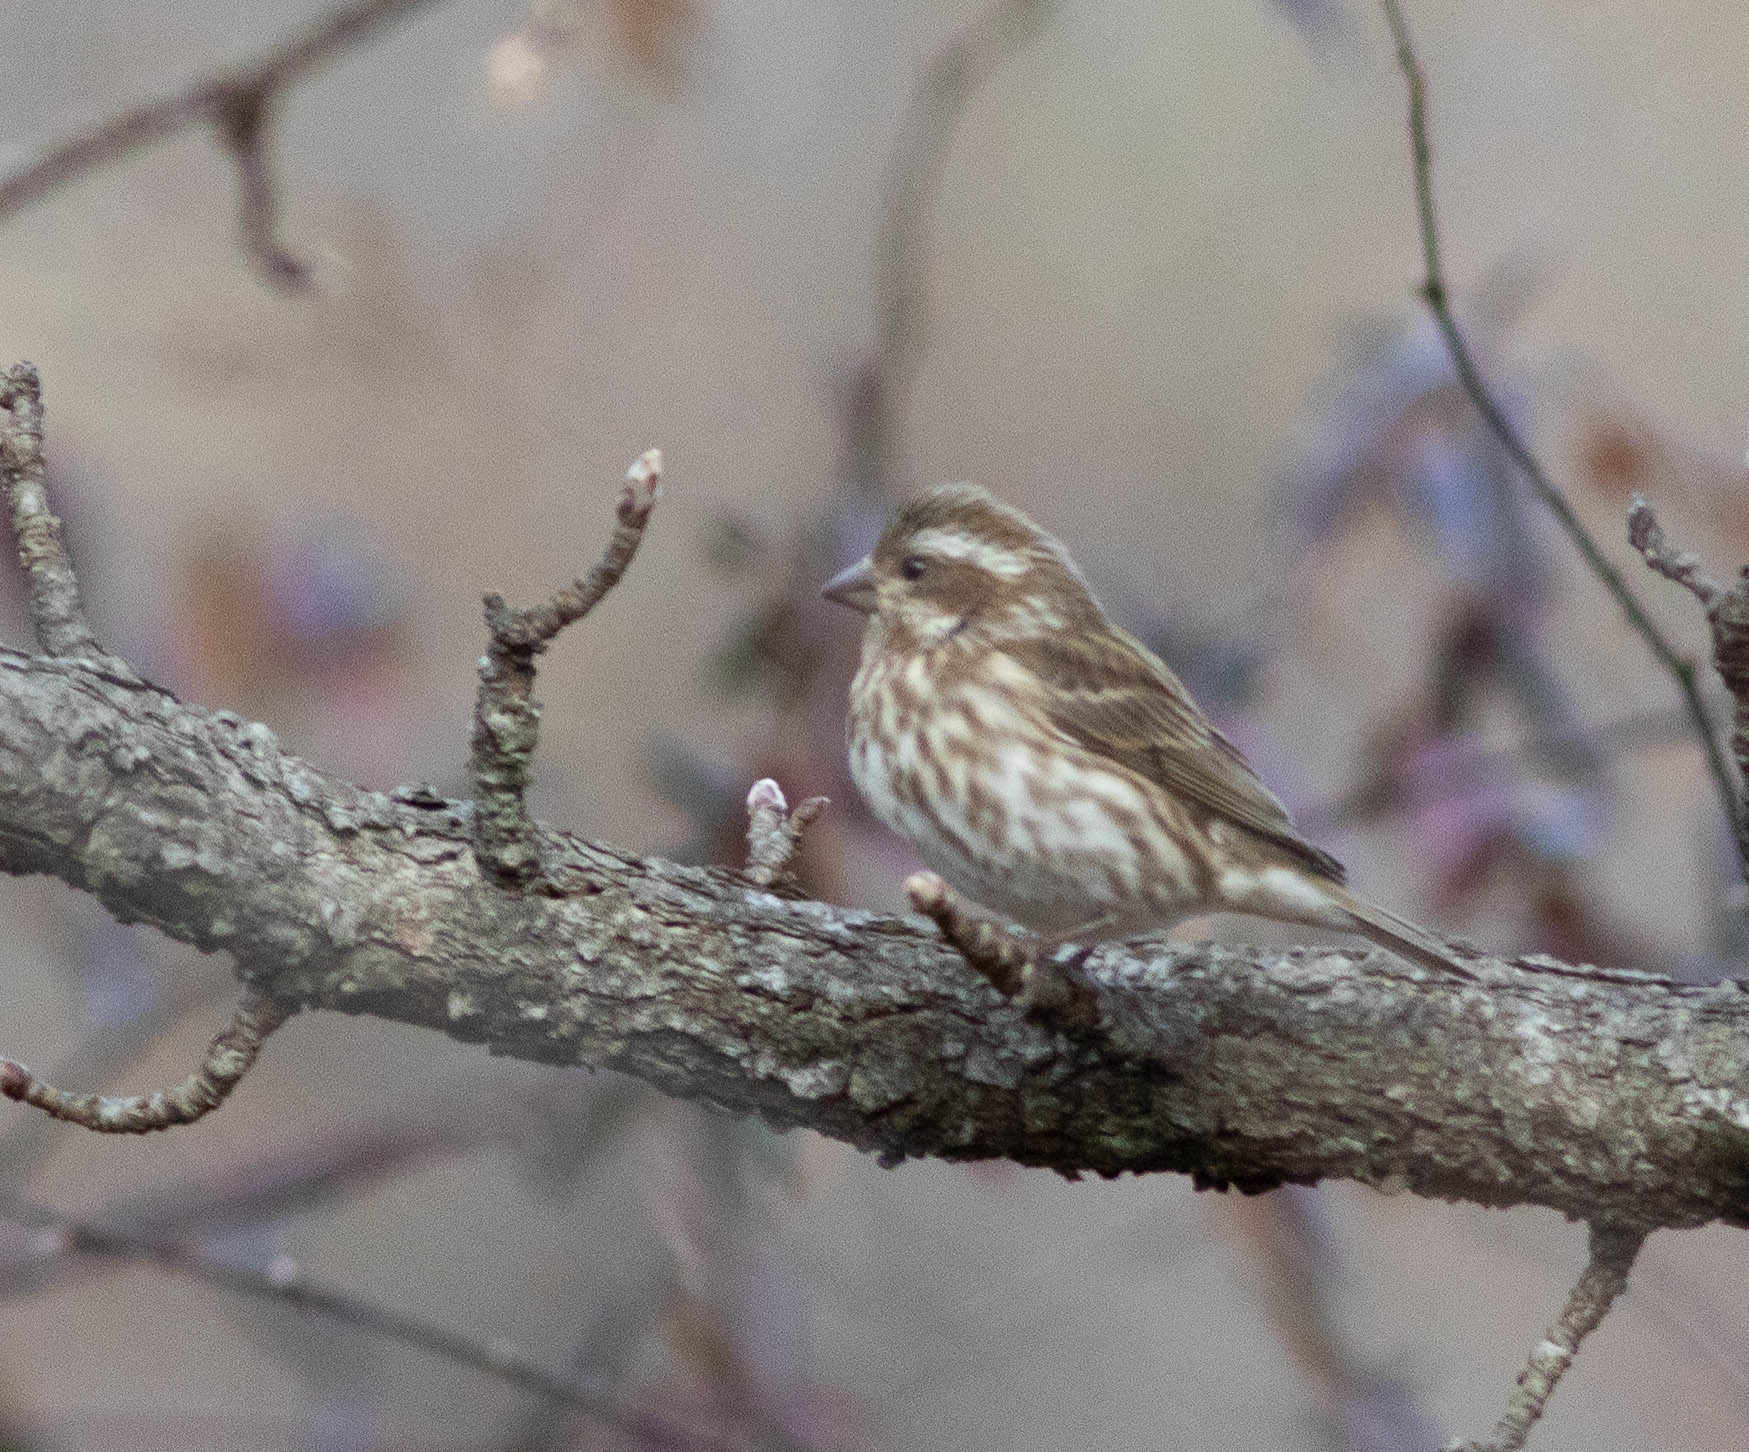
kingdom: Animalia
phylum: Chordata
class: Aves
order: Passeriformes
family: Fringillidae
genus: Haemorhous
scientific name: Haemorhous purpureus
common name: Purple finch
